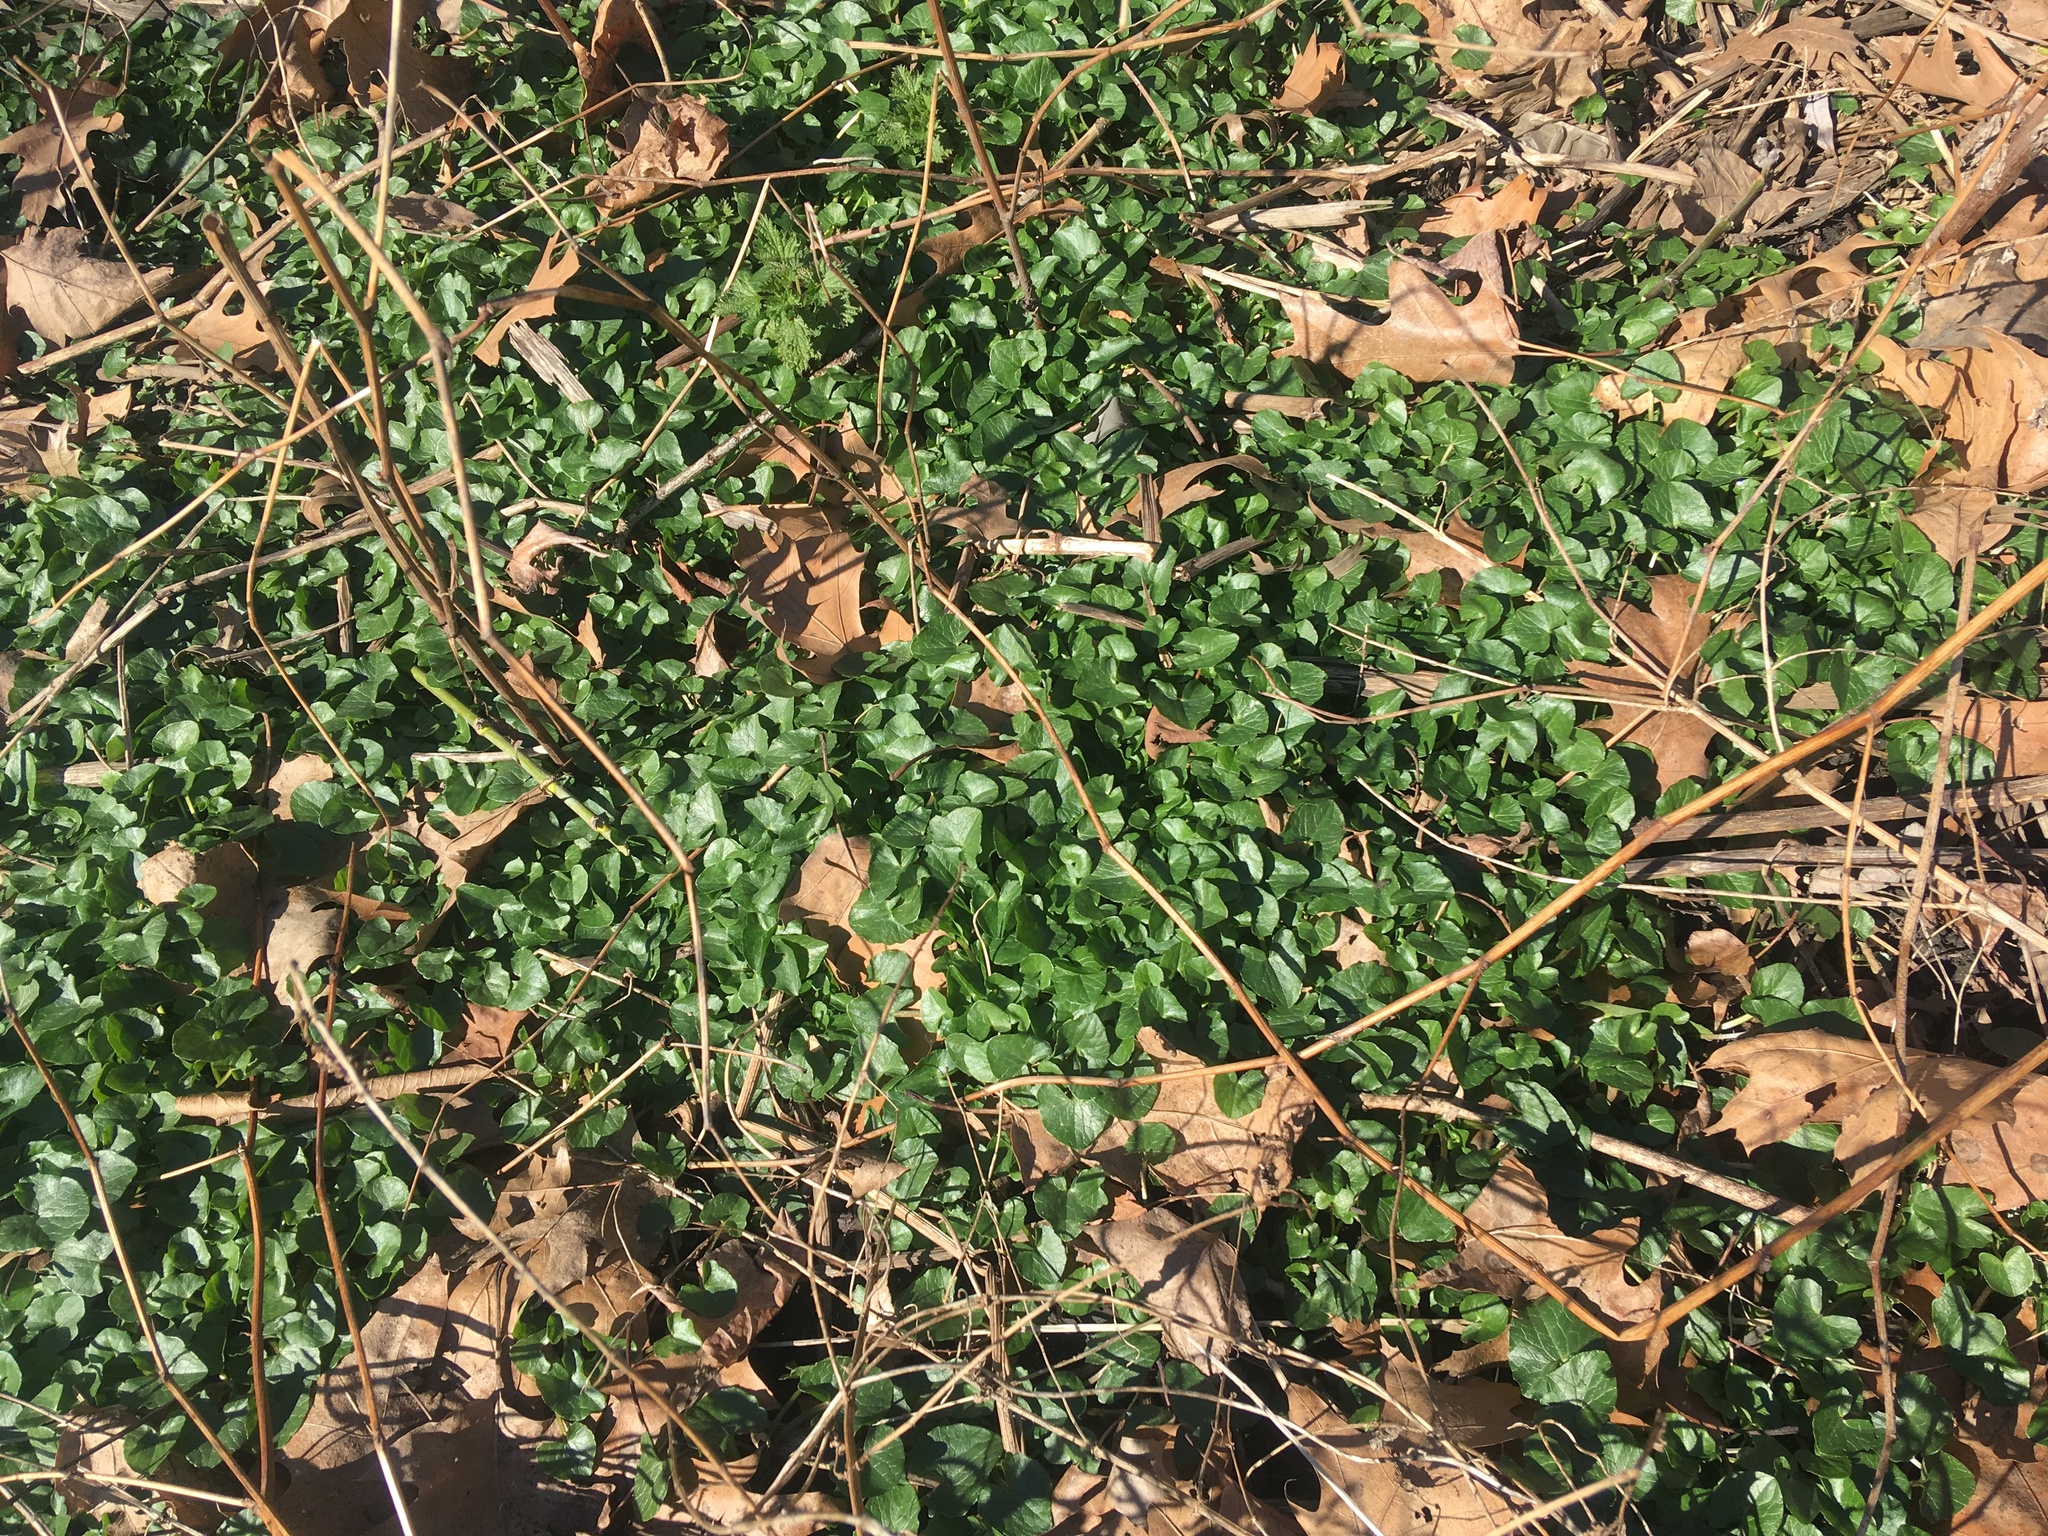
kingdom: Plantae
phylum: Tracheophyta
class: Magnoliopsida
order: Ranunculales
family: Ranunculaceae
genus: Ficaria
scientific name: Ficaria verna
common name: Lesser celandine
